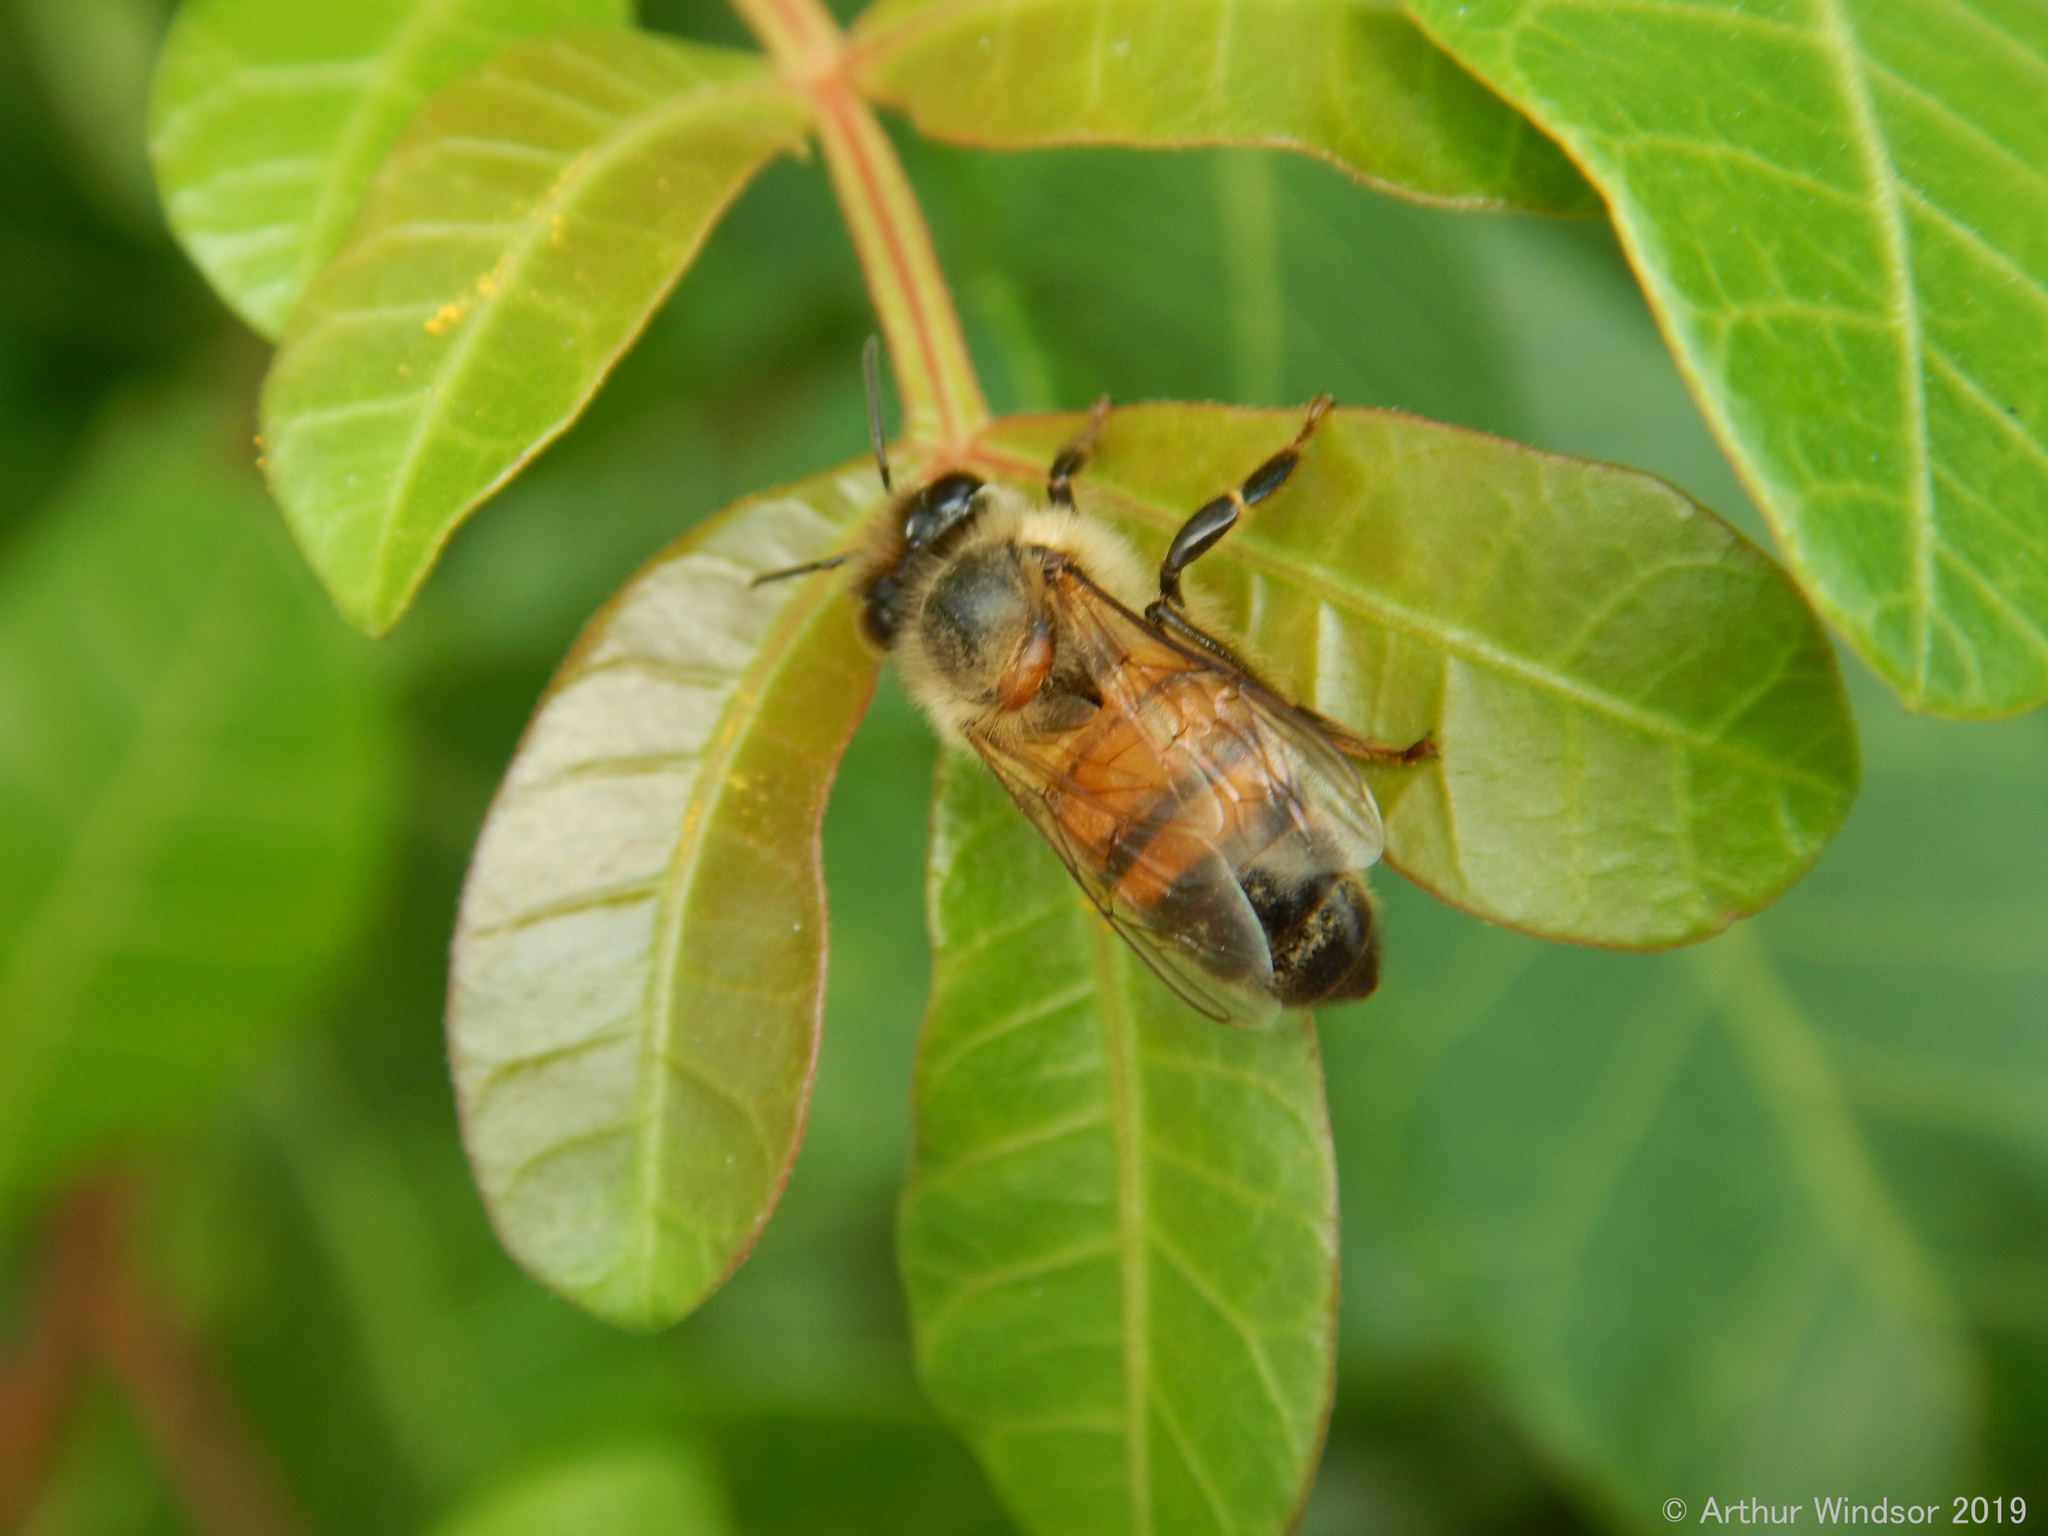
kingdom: Animalia
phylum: Arthropoda
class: Insecta
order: Hymenoptera
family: Apidae
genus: Apis
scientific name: Apis mellifera
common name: Honey bee
